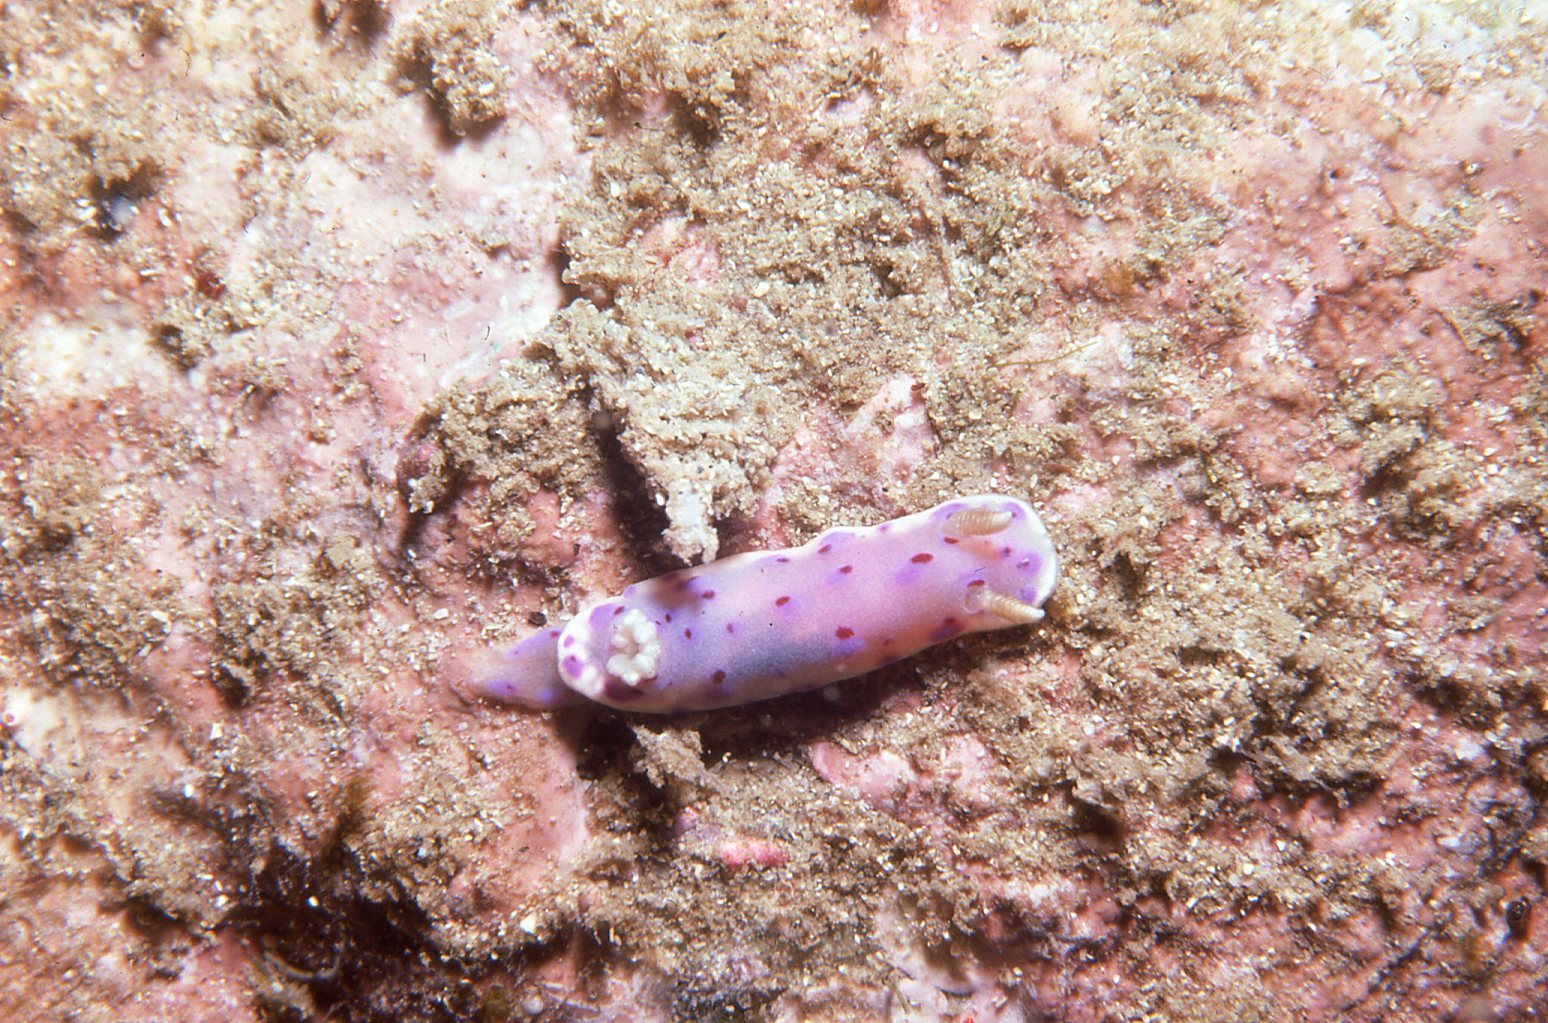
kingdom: Animalia
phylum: Mollusca
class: Gastropoda
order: Nudibranchia
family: Chromodorididae
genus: Goniobranchus
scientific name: Goniobranchus thompsoni
